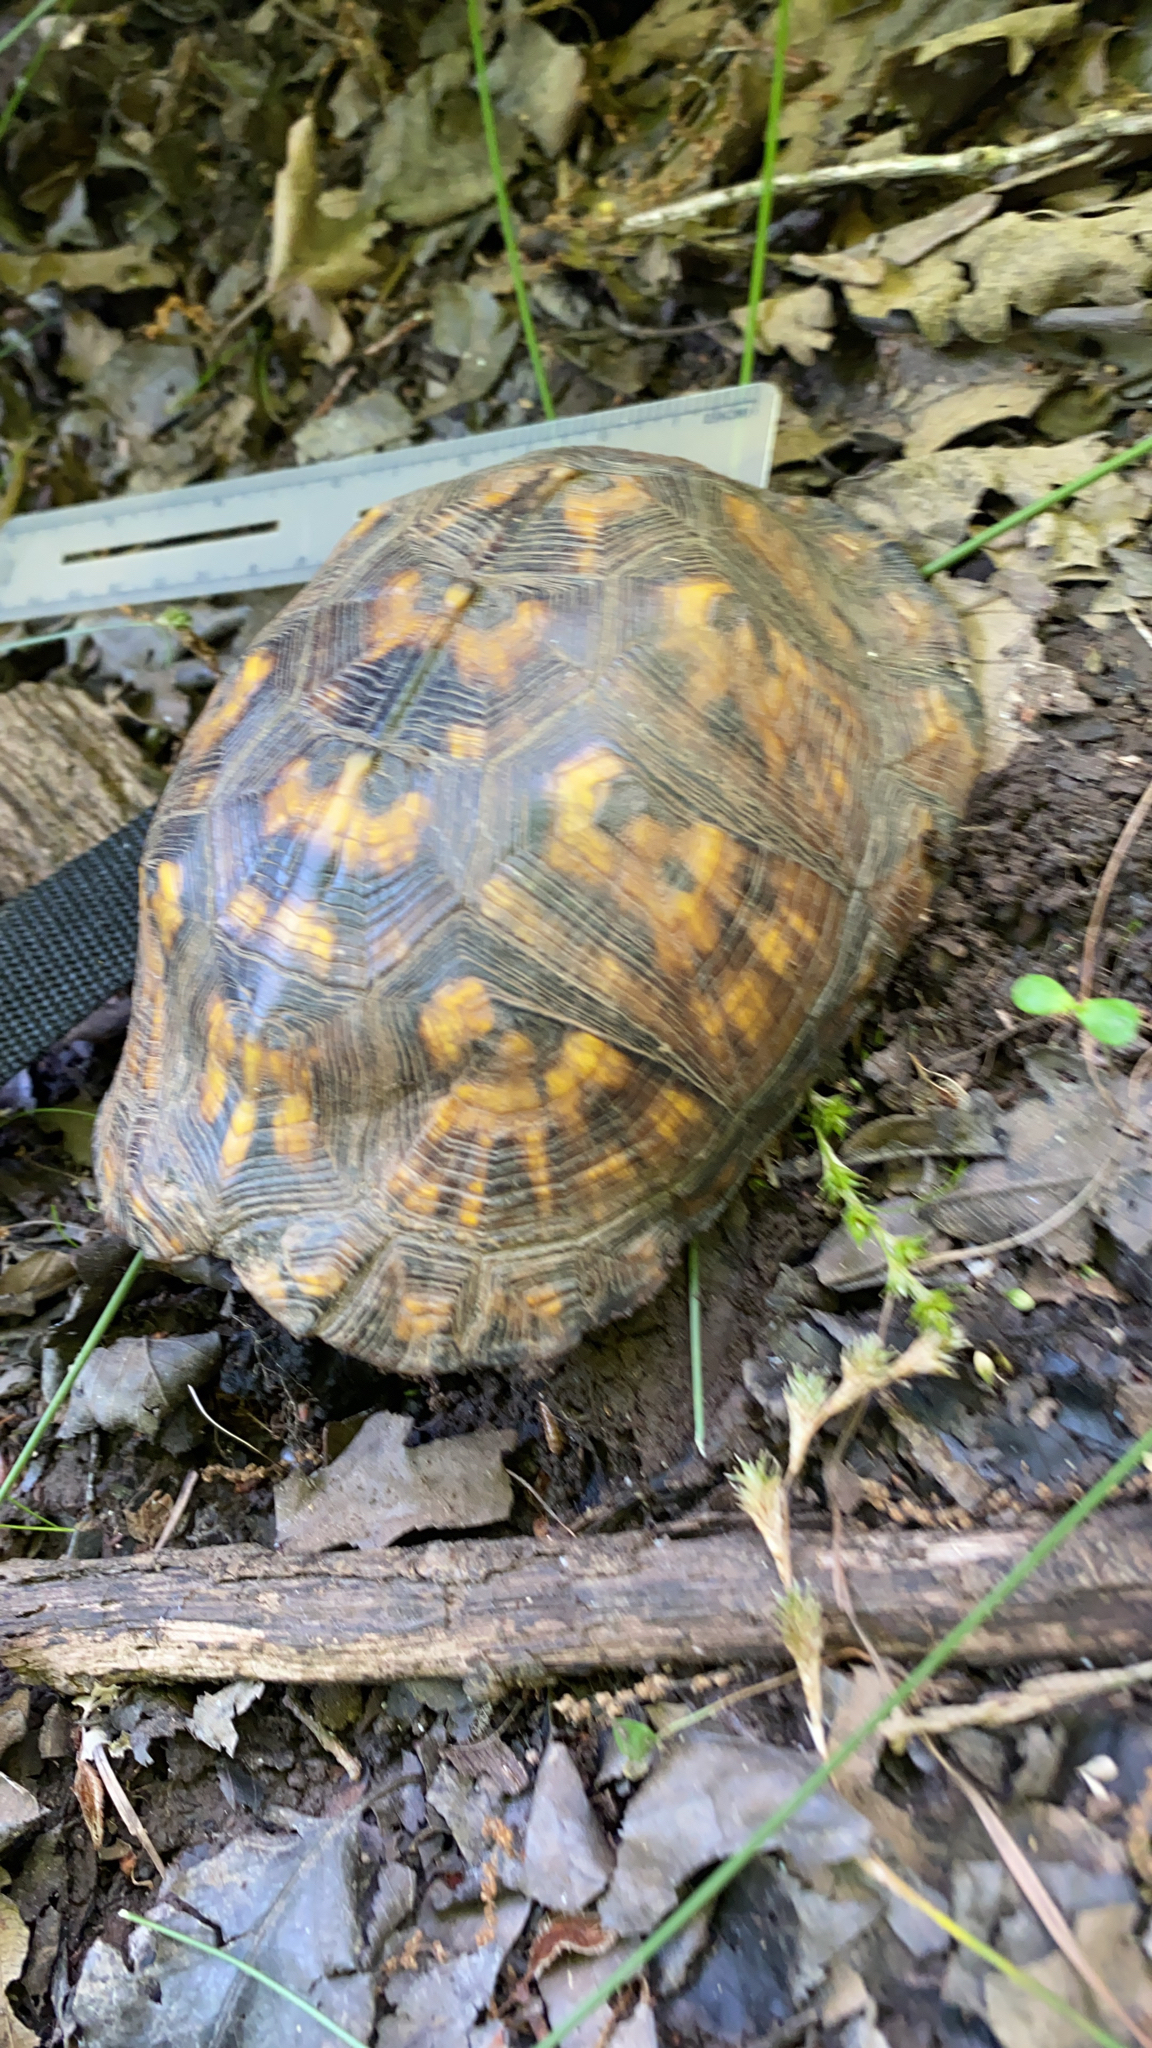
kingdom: Animalia
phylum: Chordata
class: Testudines
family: Emydidae
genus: Terrapene
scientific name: Terrapene carolina
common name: Common box turtle
